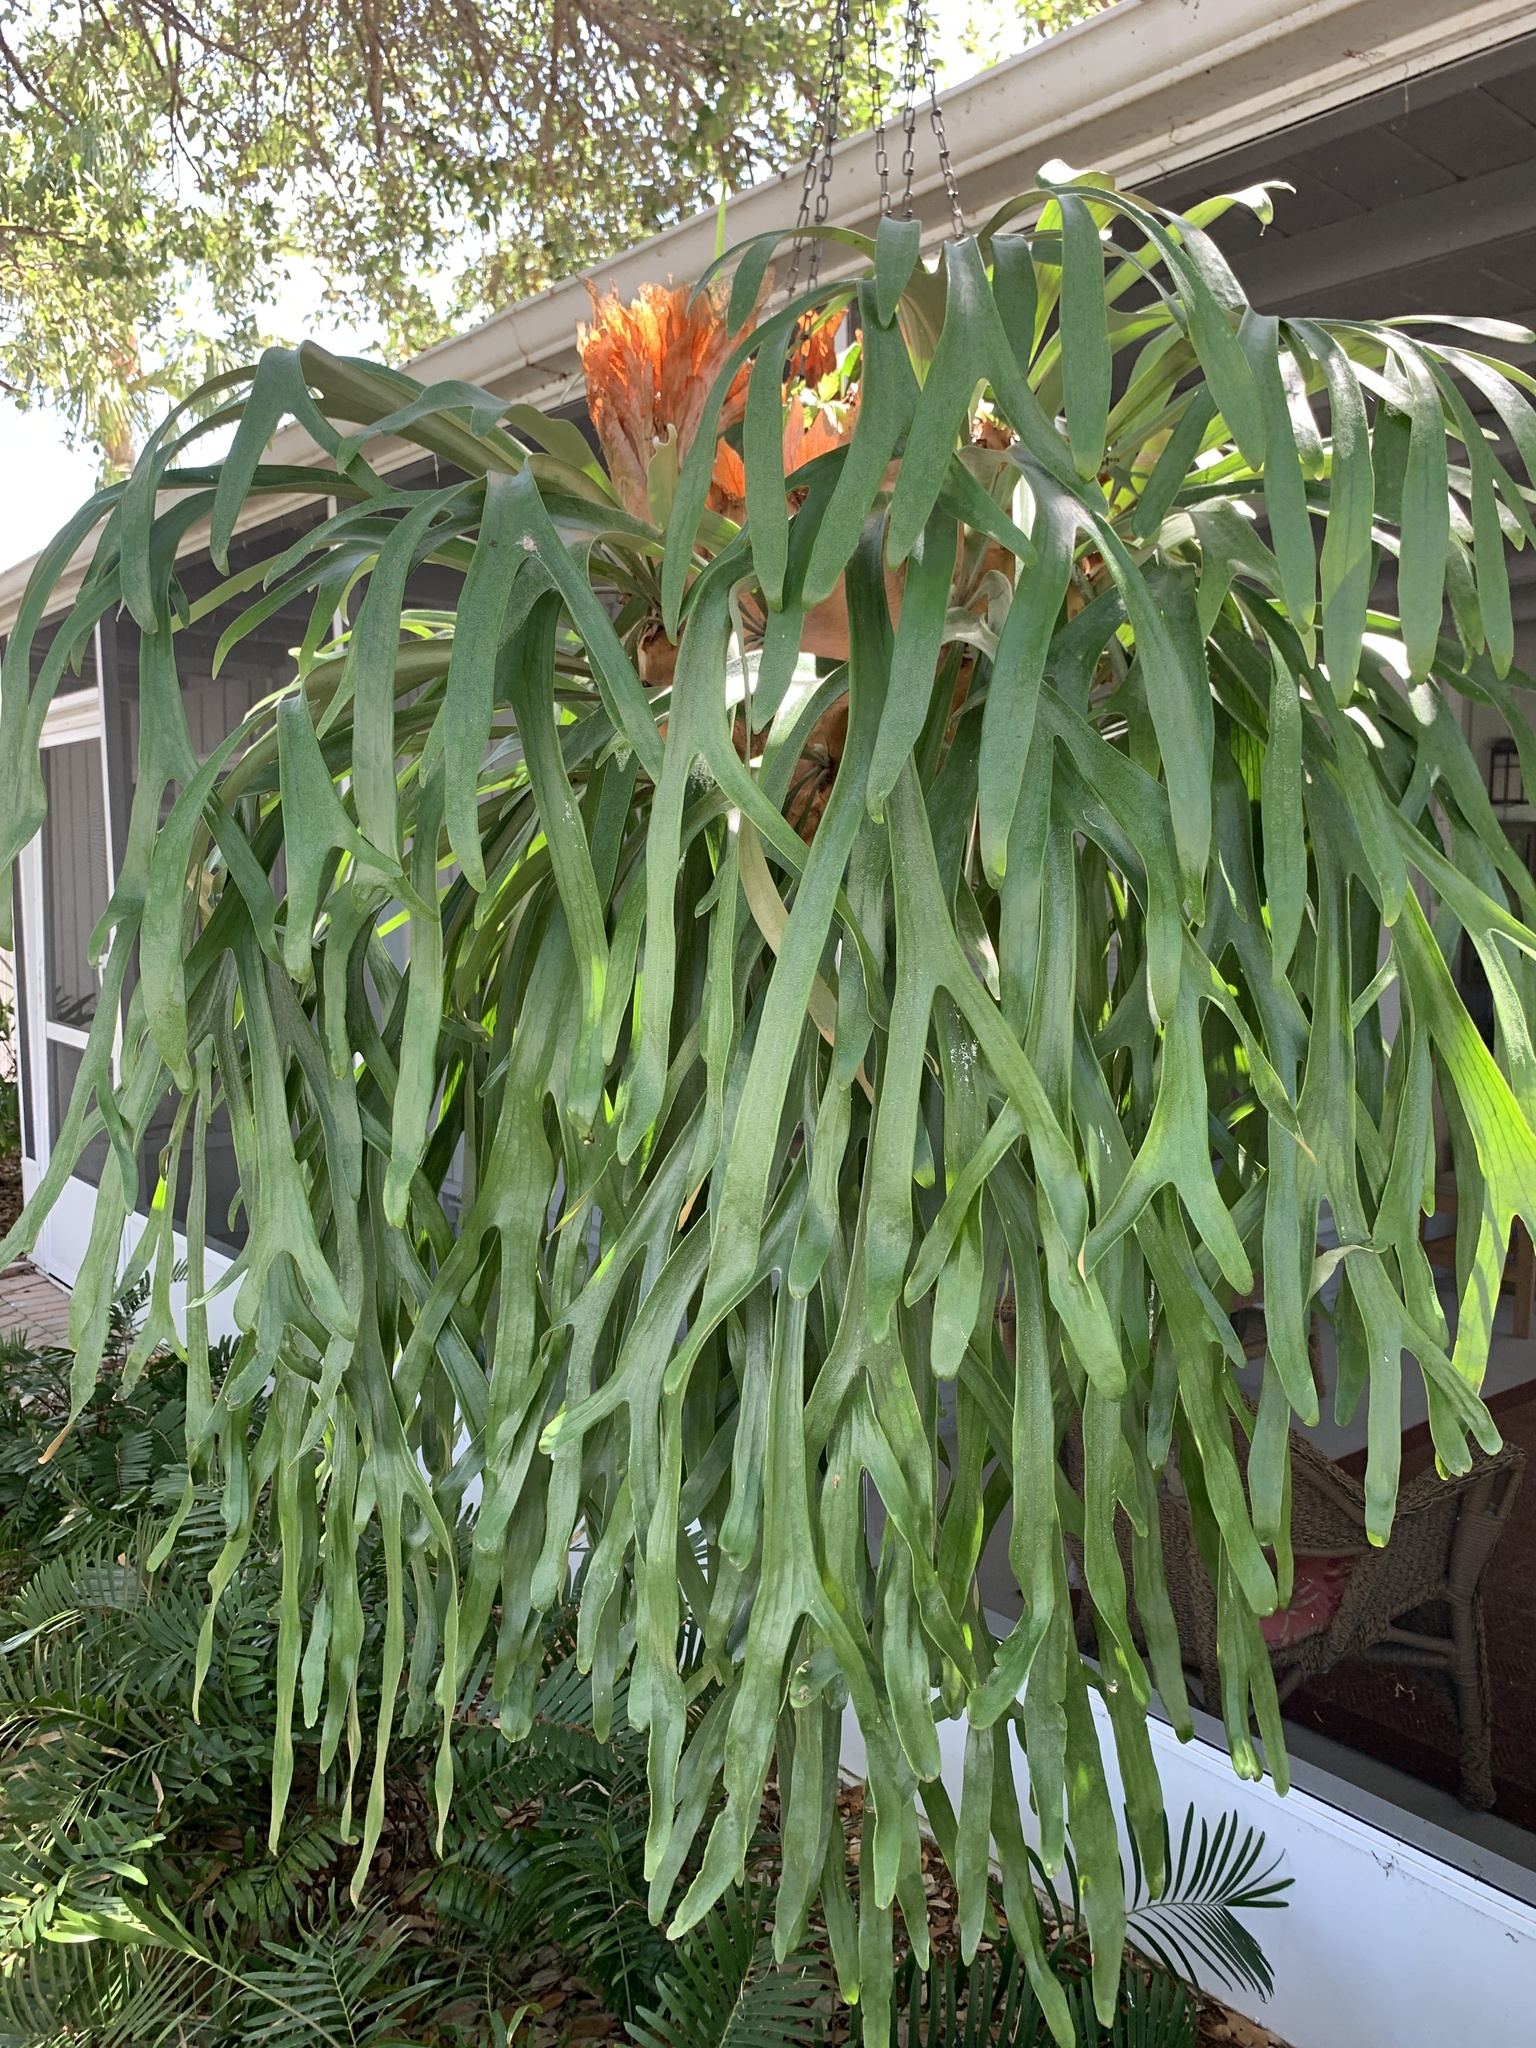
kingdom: Plantae
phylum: Tracheophyta
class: Polypodiopsida
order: Polypodiales
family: Polypodiaceae
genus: Platycerium
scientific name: Platycerium bifurcatum
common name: Elkhorn fern
